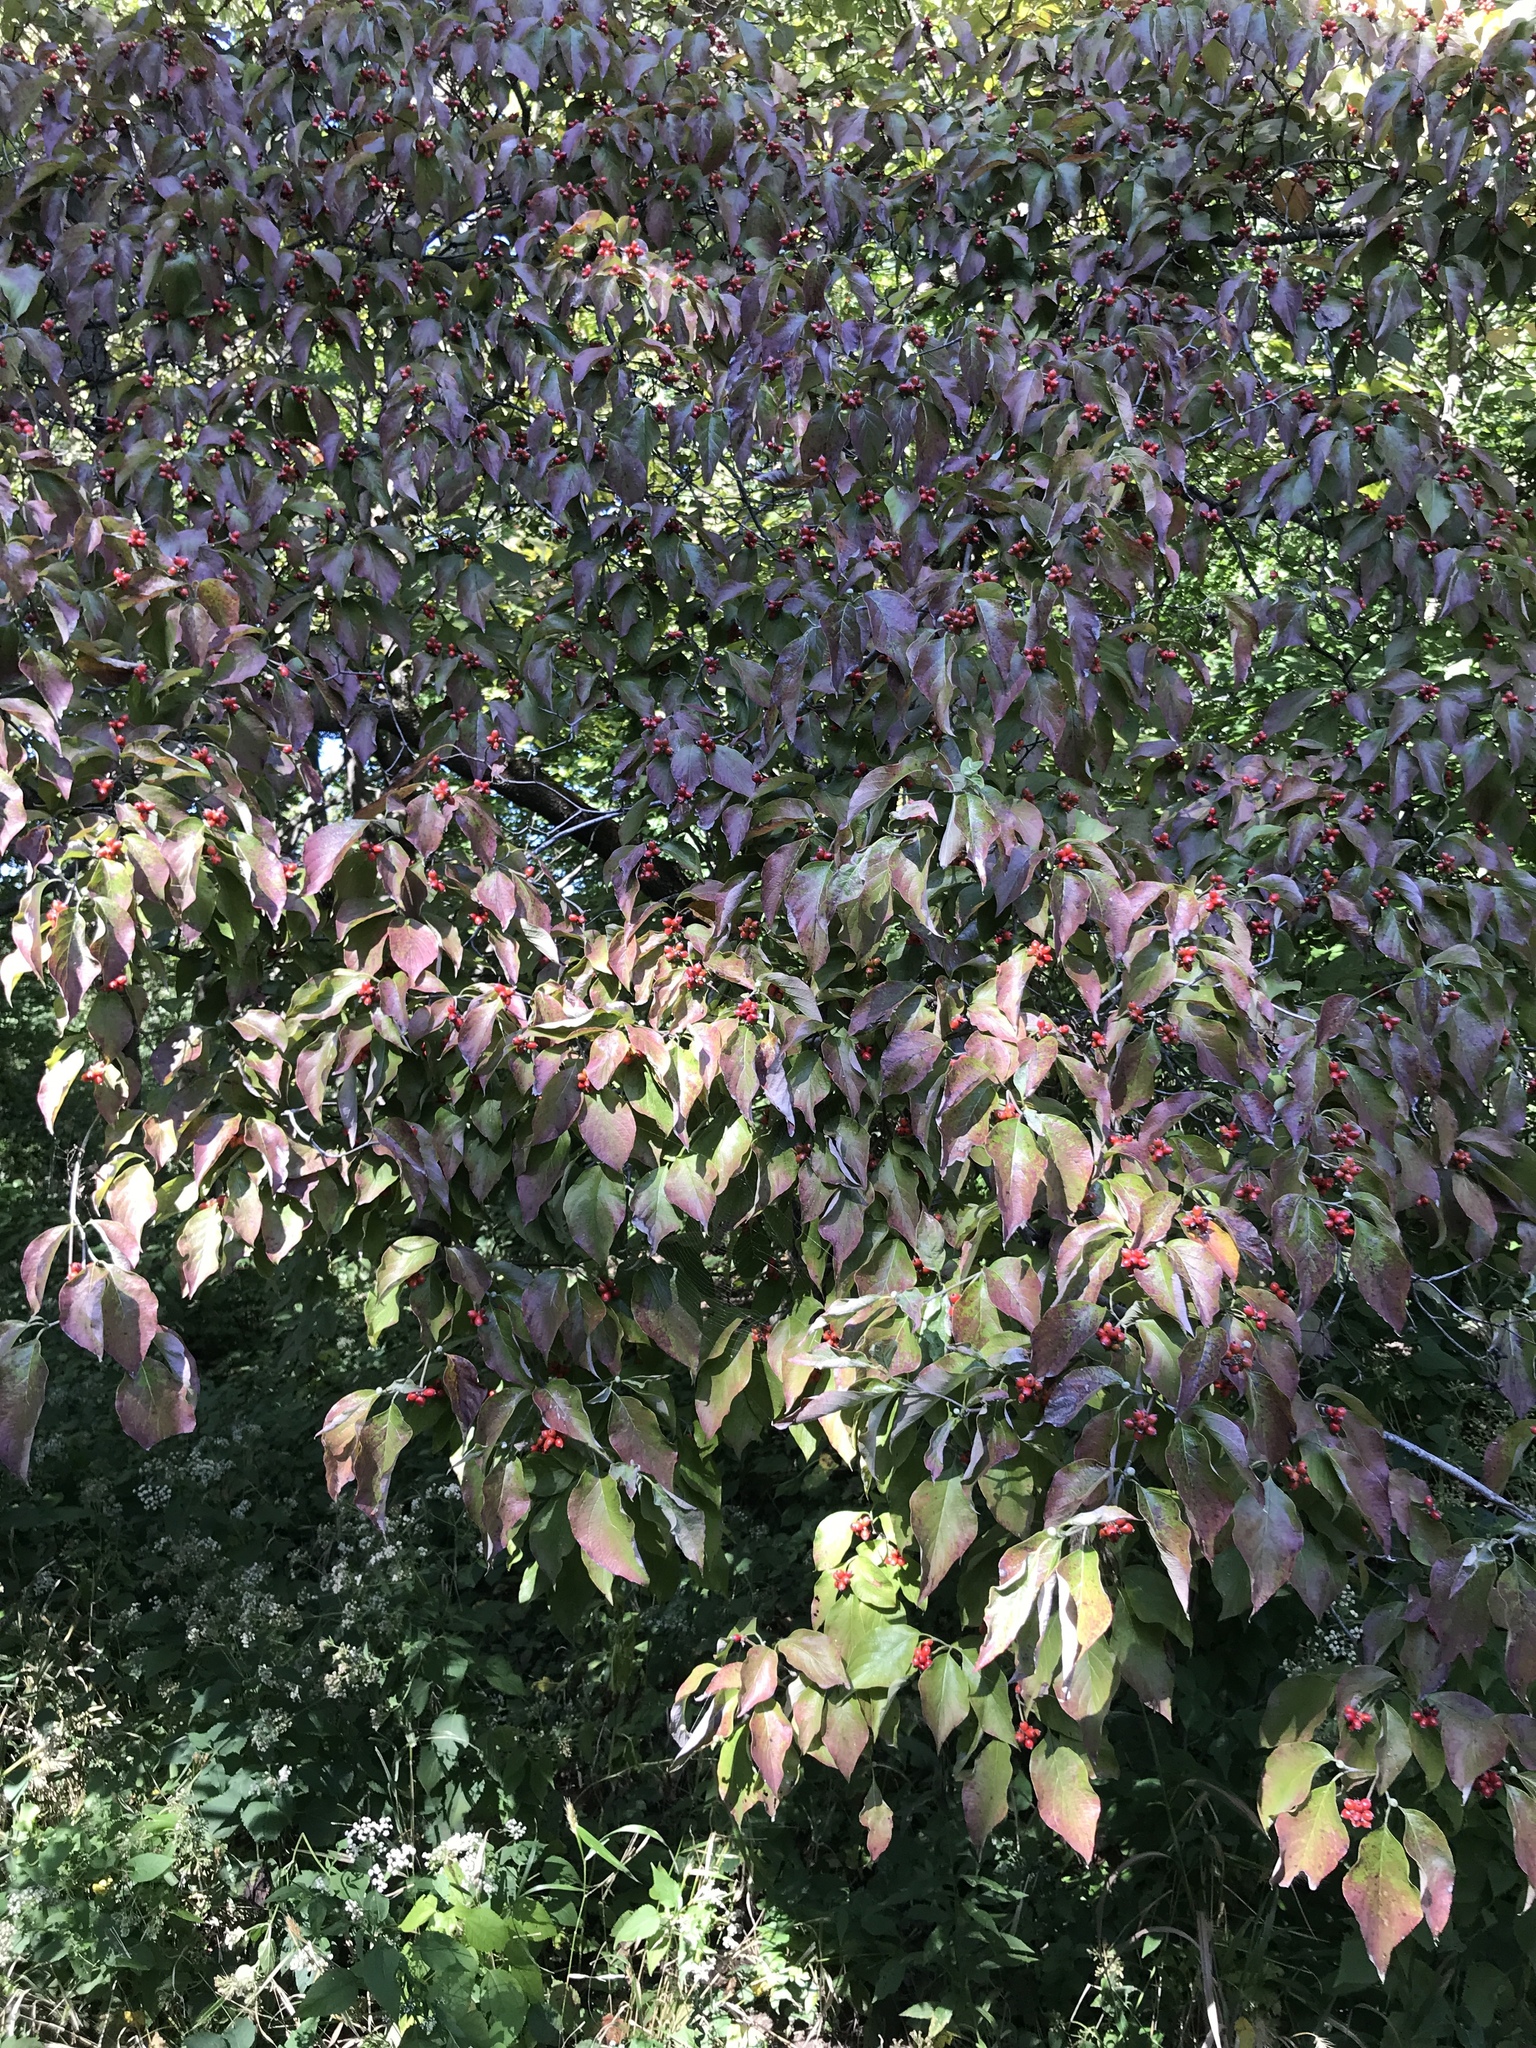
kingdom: Plantae
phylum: Tracheophyta
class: Magnoliopsida
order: Cornales
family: Cornaceae
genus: Cornus
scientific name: Cornus florida
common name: Flowering dogwood
